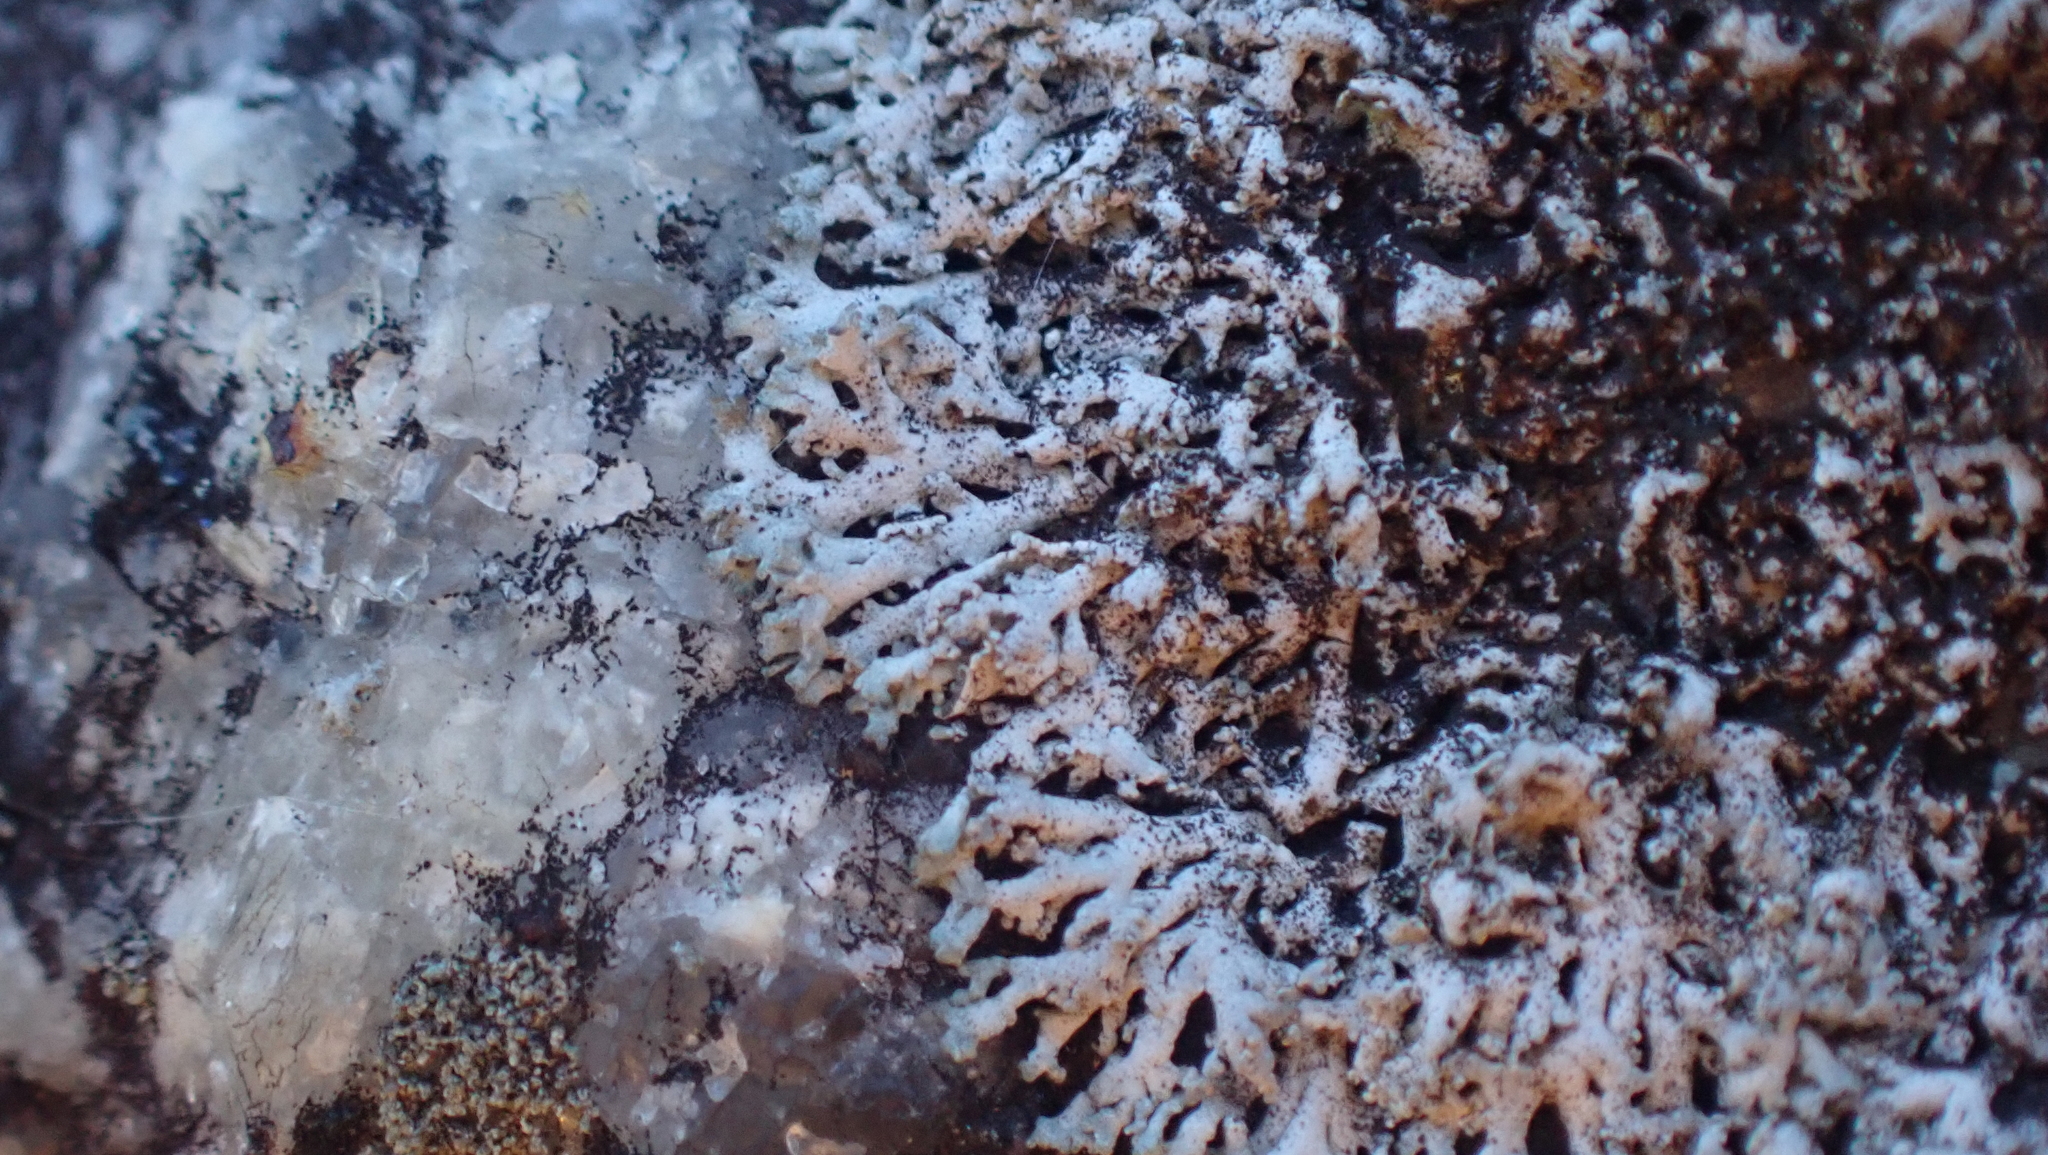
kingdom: Fungi
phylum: Ascomycota
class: Lecanoromycetes
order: Caliciales
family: Physciaceae
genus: Physcia
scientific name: Physcia thomsoniana
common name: Thomson's rosette lichen
